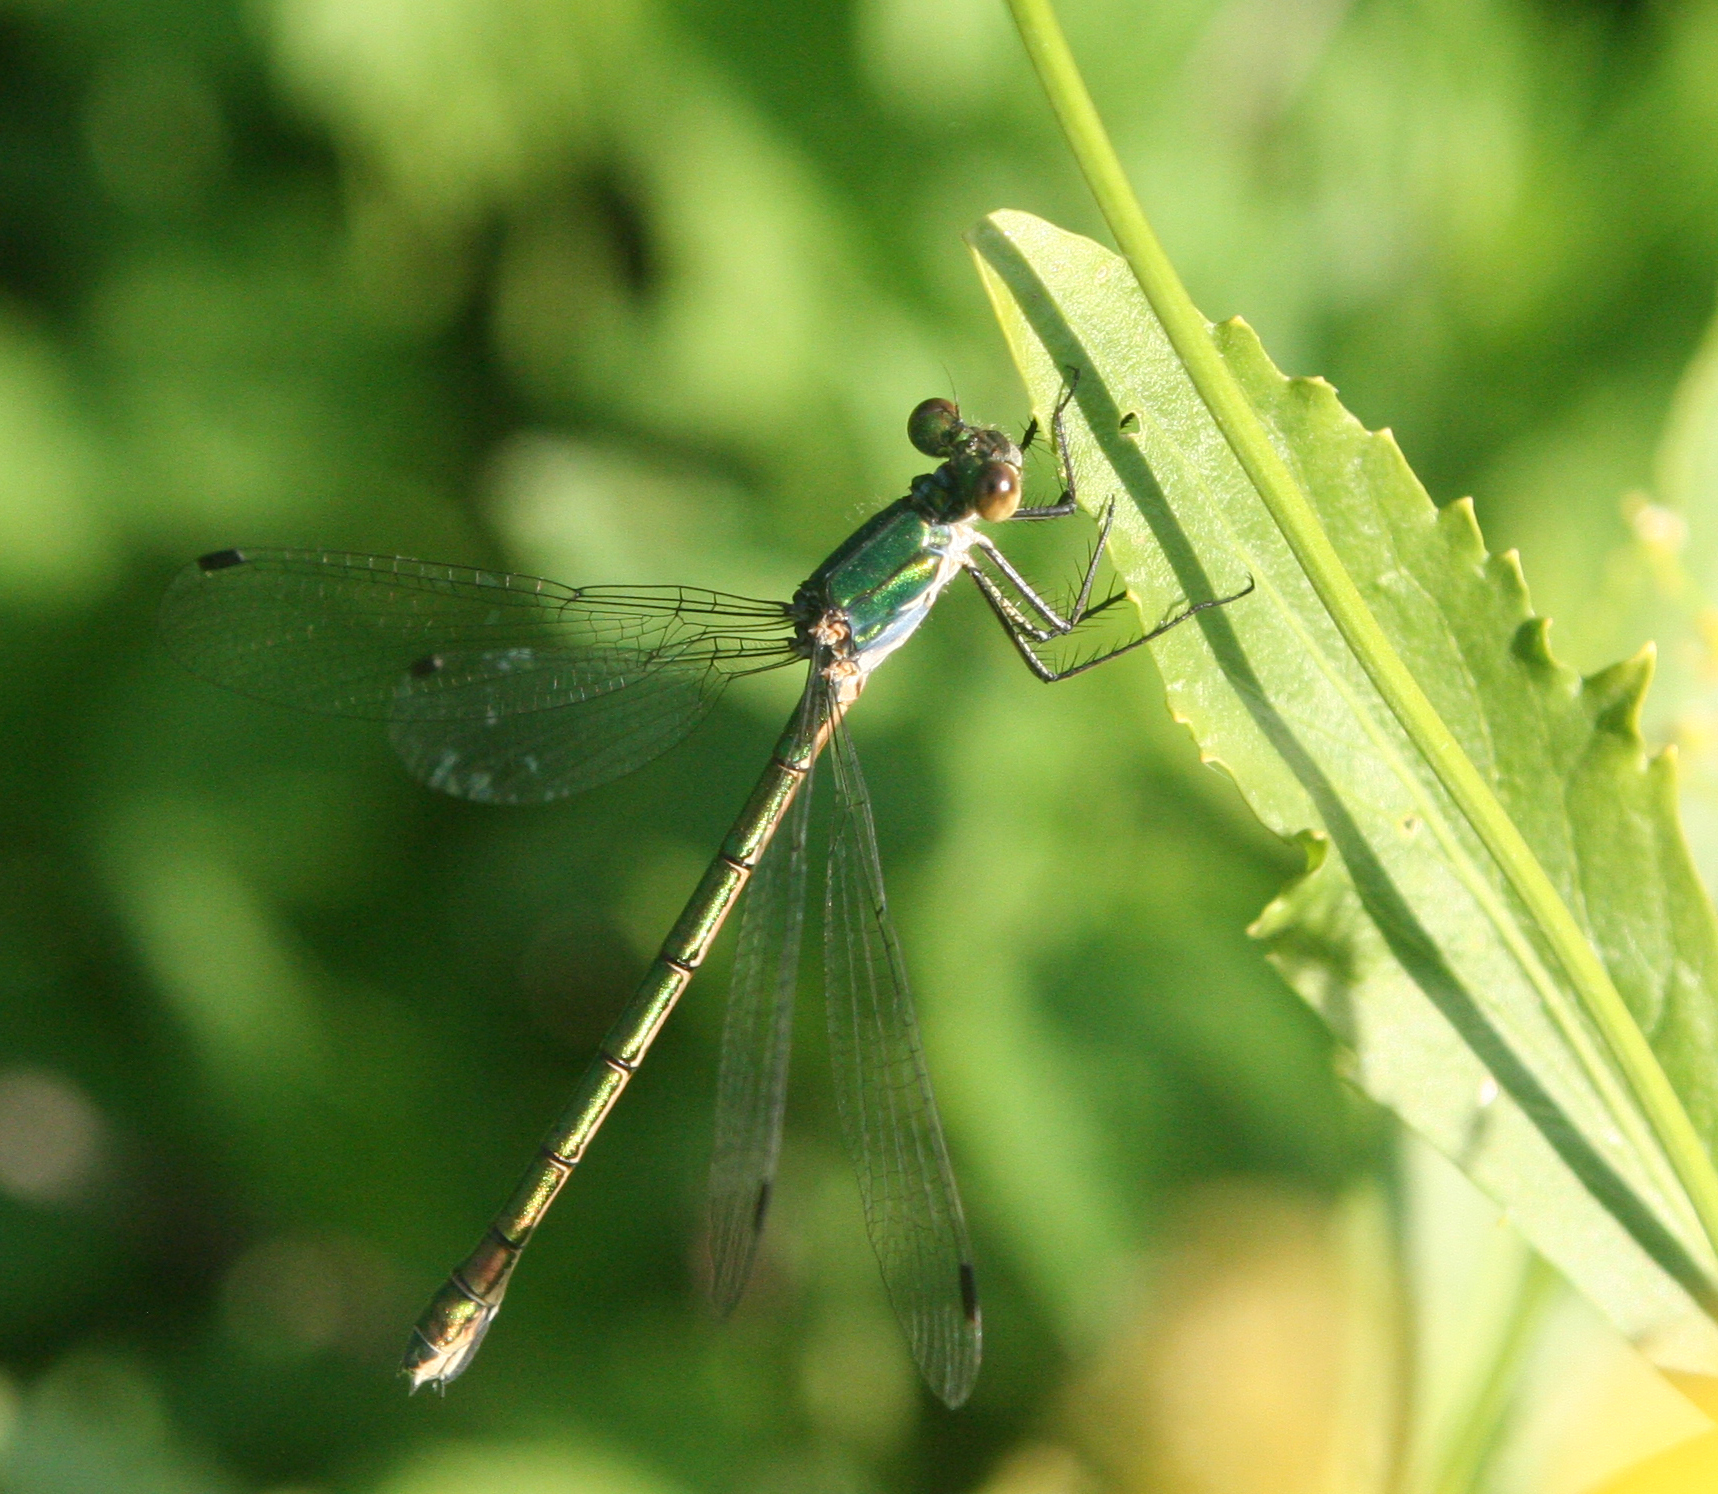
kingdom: Animalia
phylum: Arthropoda
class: Insecta
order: Odonata
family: Lestidae
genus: Lestes
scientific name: Lestes dryas
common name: Scarce emerald damselfly
